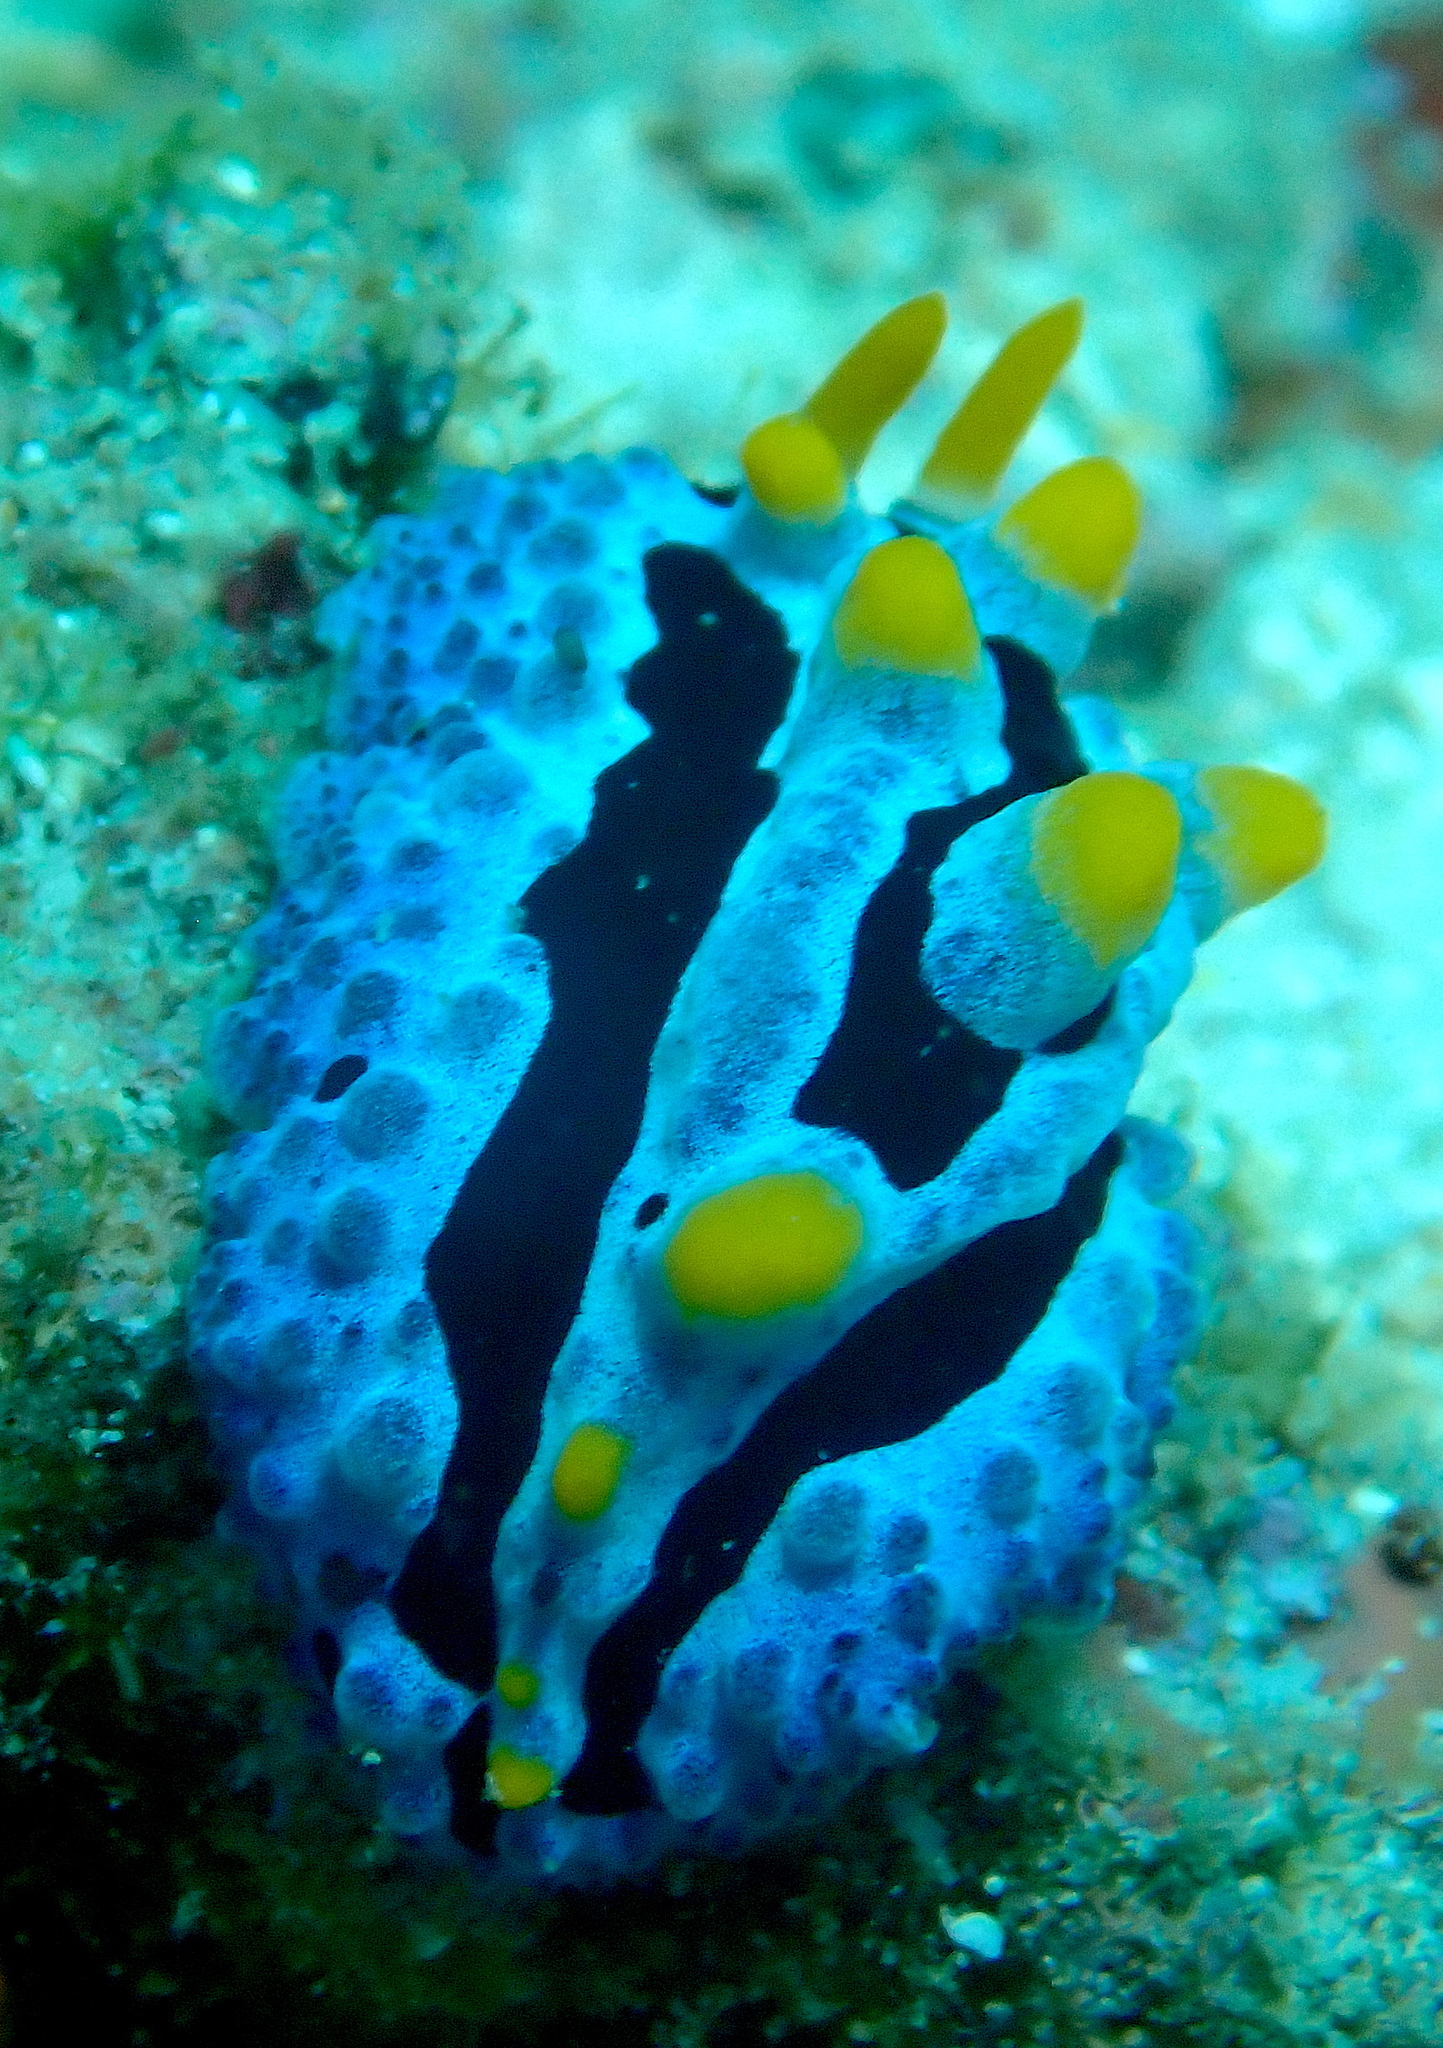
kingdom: Animalia
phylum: Mollusca
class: Gastropoda
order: Nudibranchia
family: Phyllidiidae
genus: Phyllidia
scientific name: Phyllidia coelestis
